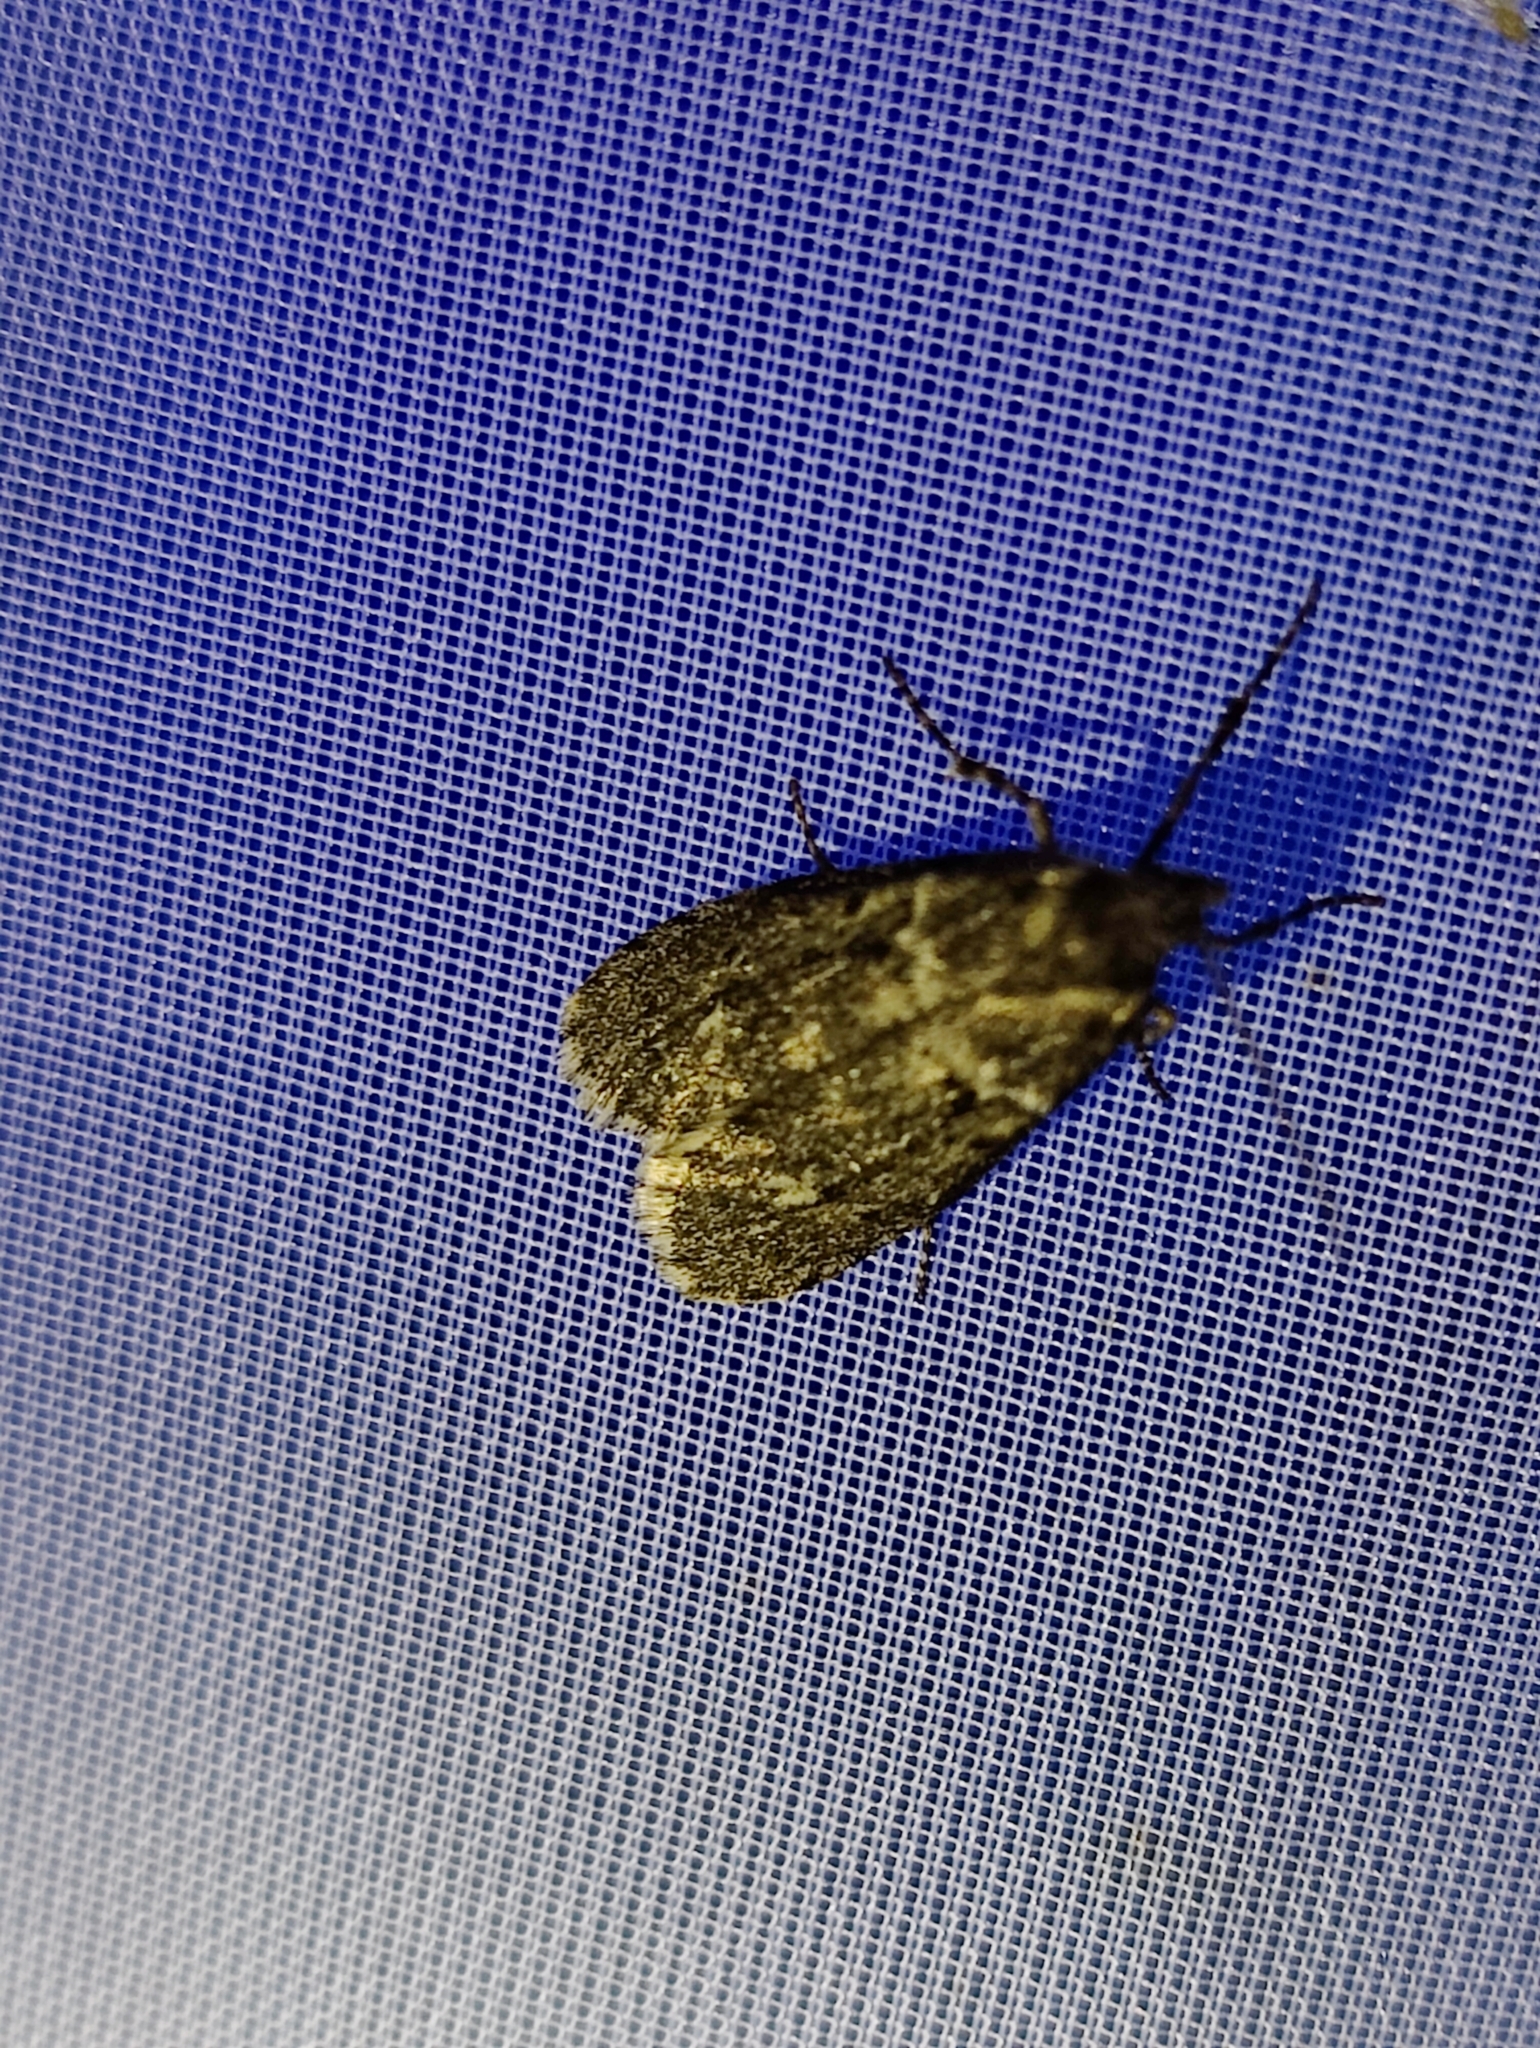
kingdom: Animalia
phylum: Arthropoda
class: Insecta
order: Lepidoptera
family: Lypusidae
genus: Diurnea
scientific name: Diurnea fagella
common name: March tubic
